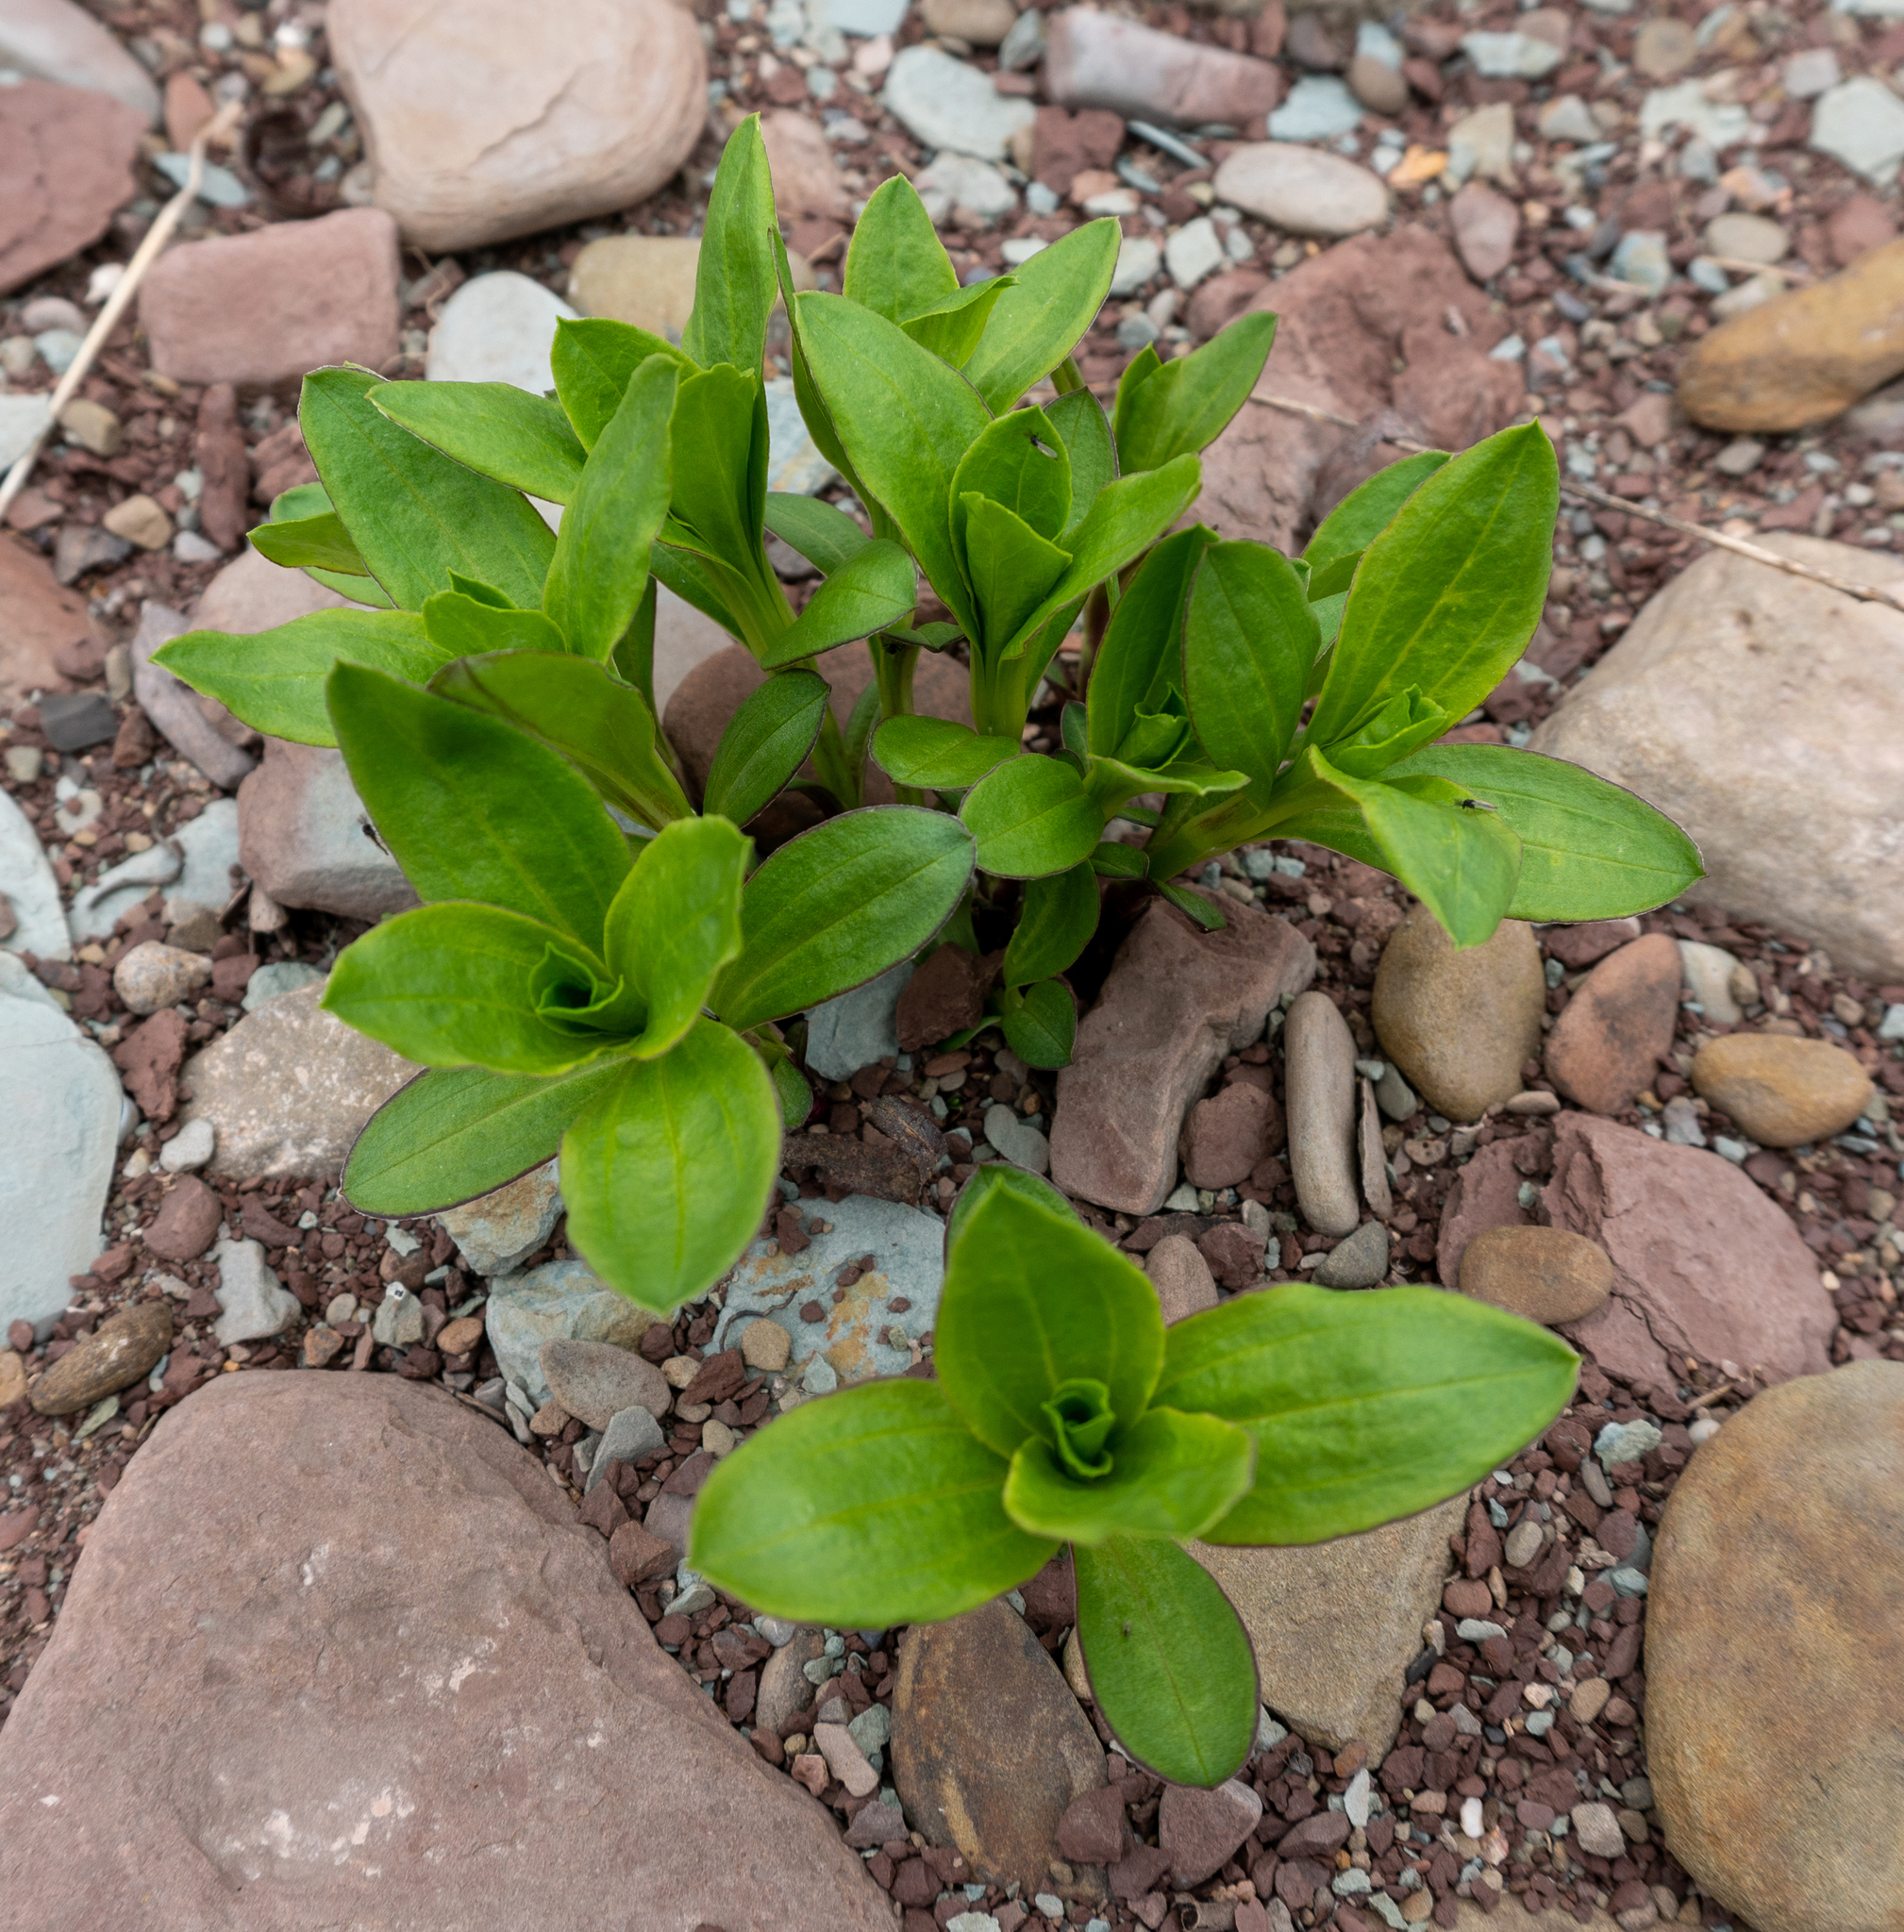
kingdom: Plantae
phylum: Tracheophyta
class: Magnoliopsida
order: Caryophyllales
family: Caryophyllaceae
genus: Saponaria
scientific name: Saponaria officinalis
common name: Soapwort
